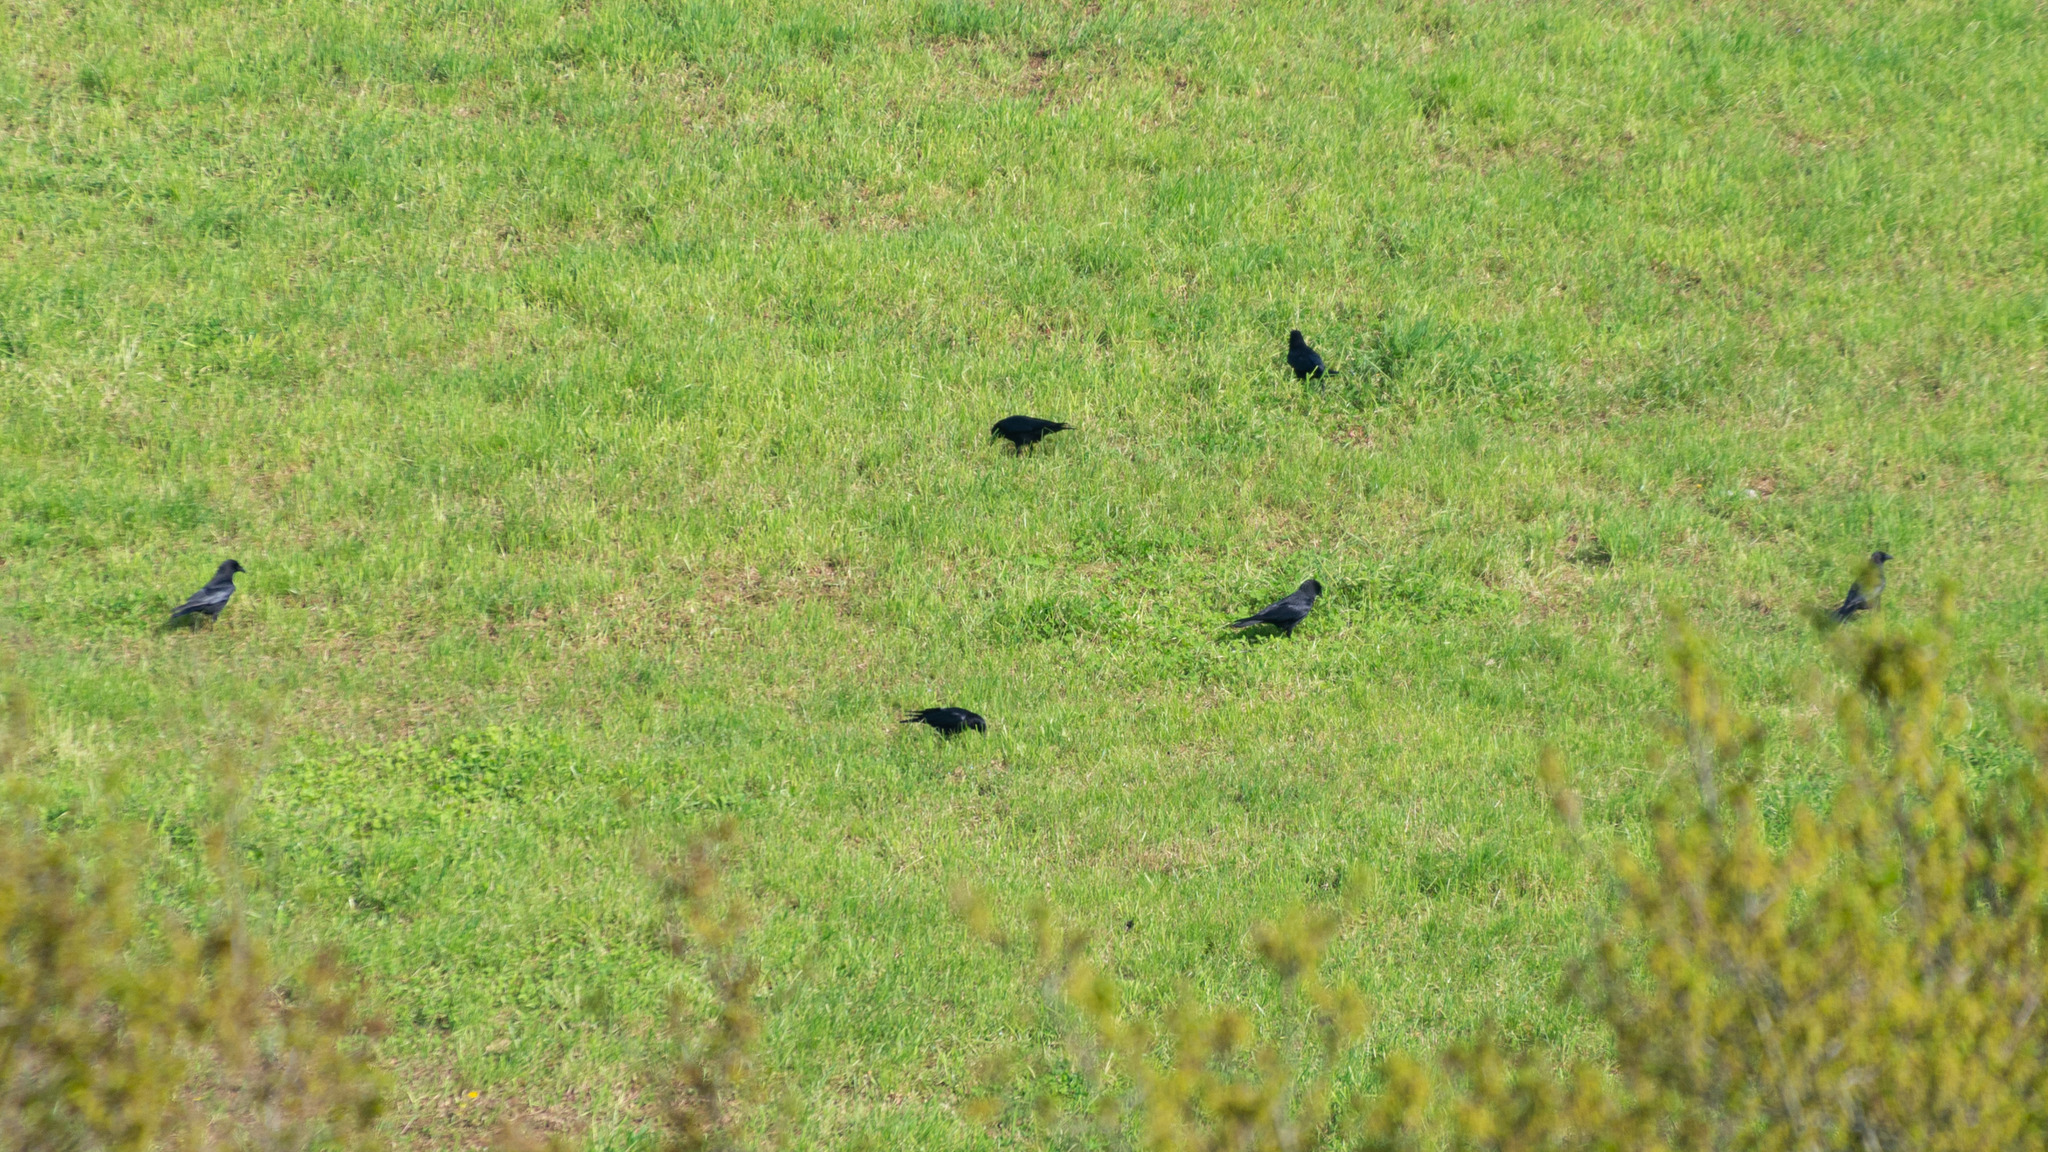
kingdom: Animalia
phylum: Chordata
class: Aves
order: Passeriformes
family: Corvidae
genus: Corvus
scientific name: Corvus corone
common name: Carrion crow
